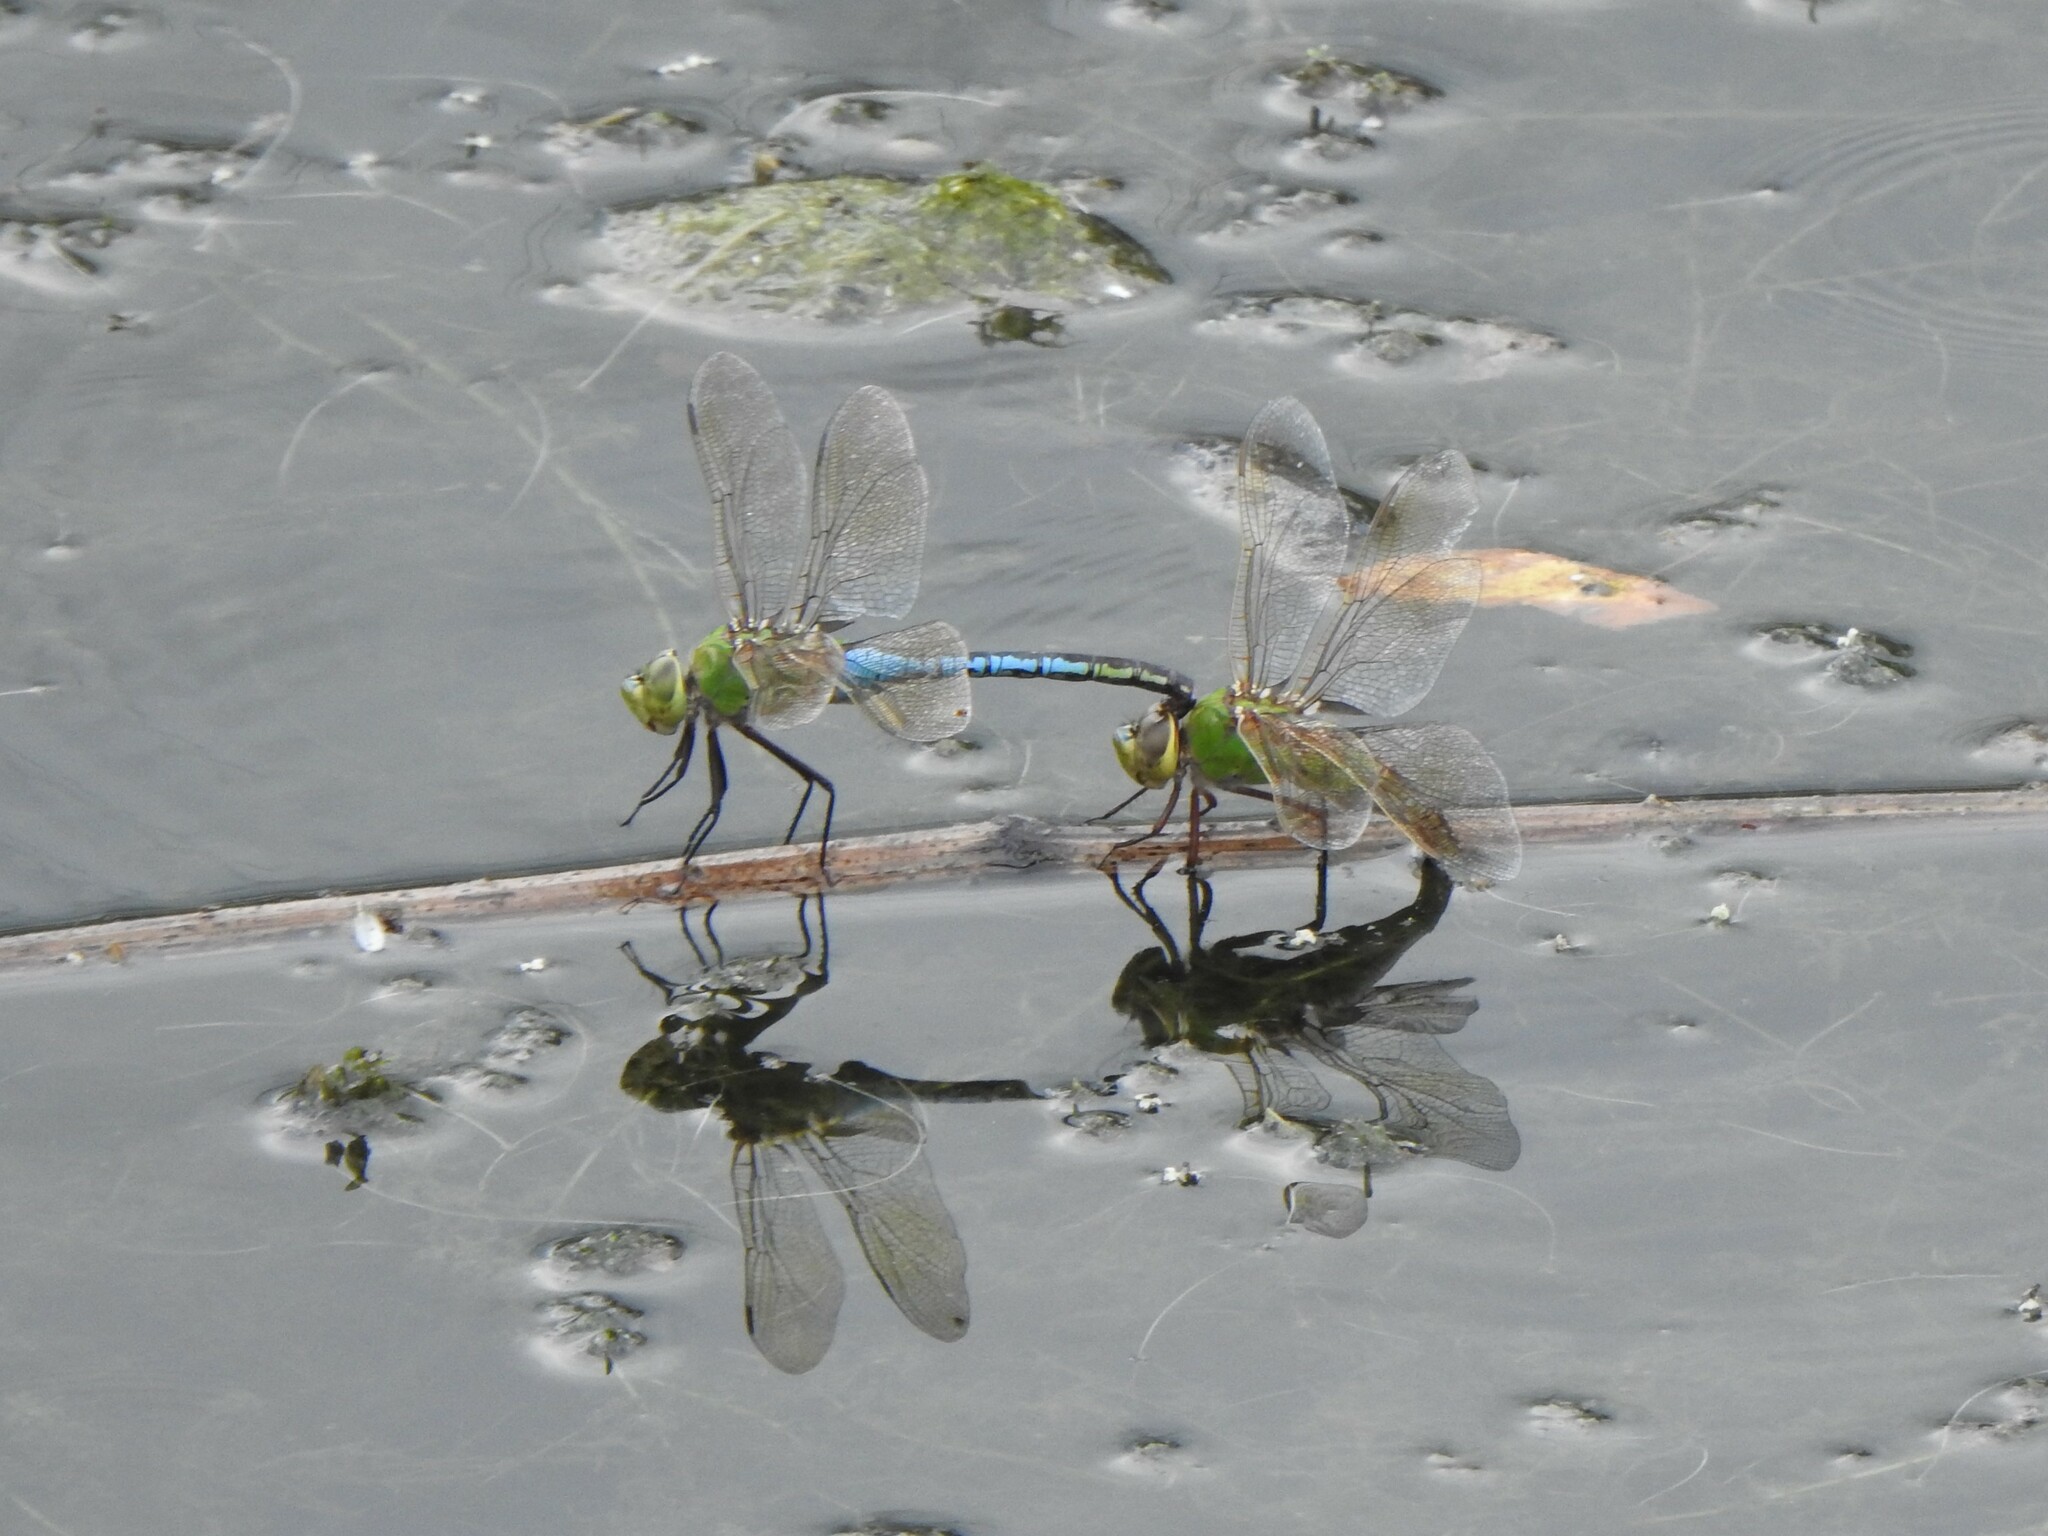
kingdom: Animalia
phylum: Arthropoda
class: Insecta
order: Odonata
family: Aeshnidae
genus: Anax
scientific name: Anax junius
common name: Common green darner
